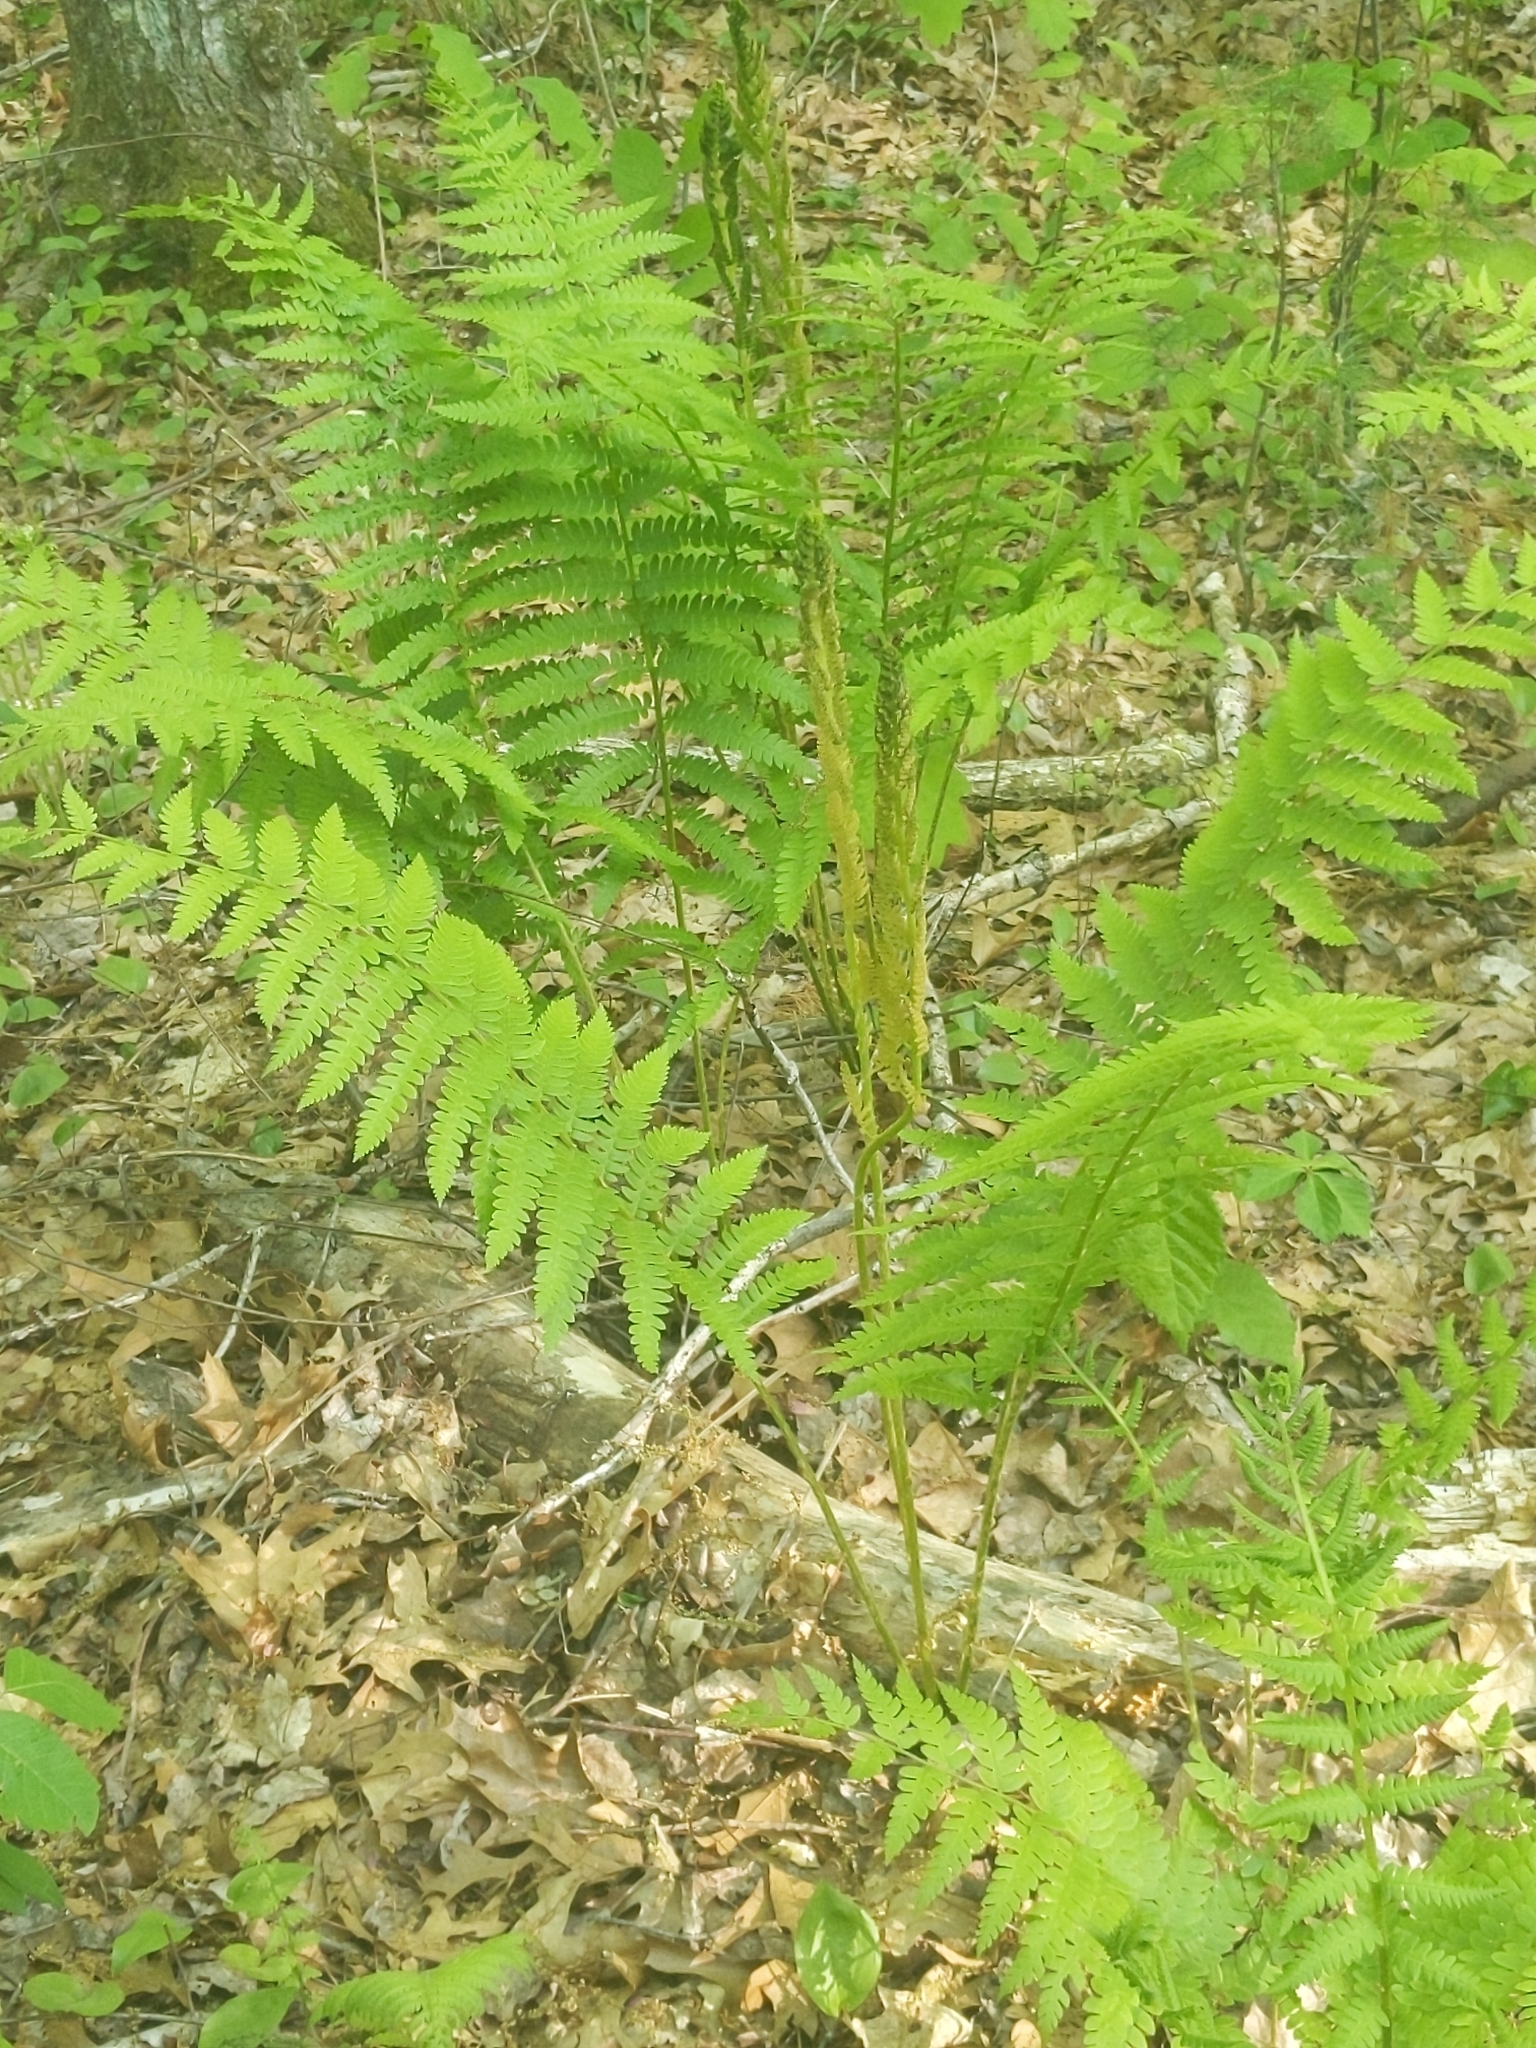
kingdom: Plantae
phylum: Tracheophyta
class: Polypodiopsida
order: Osmundales
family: Osmundaceae
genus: Osmundastrum
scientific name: Osmundastrum cinnamomeum
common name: Cinnamon fern
